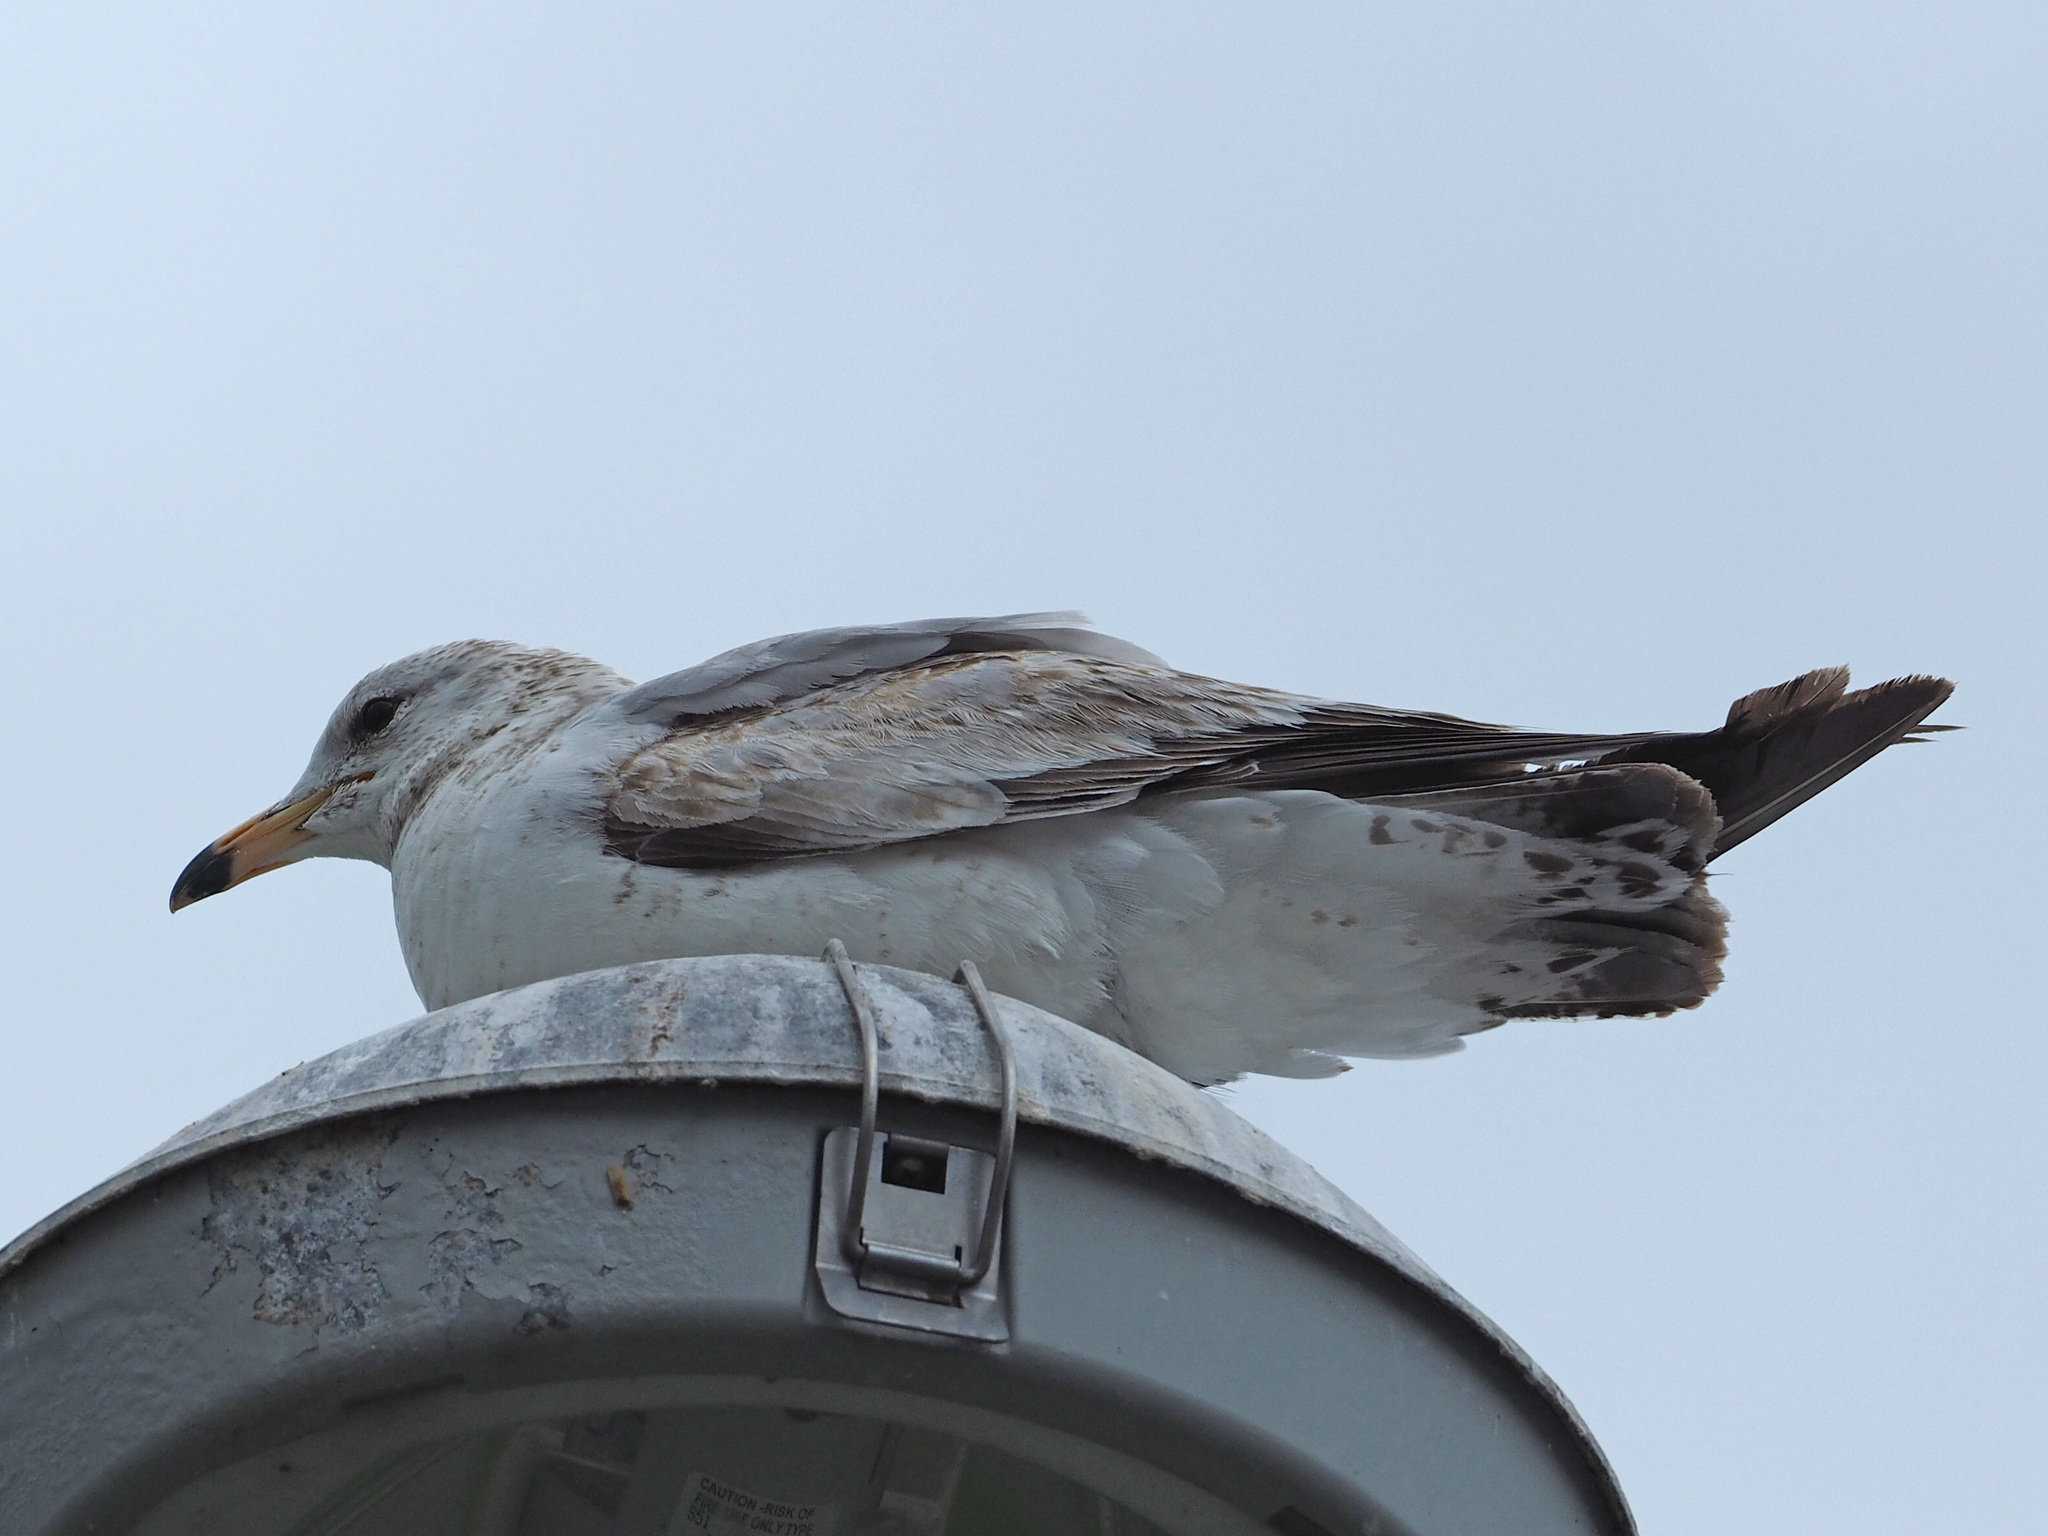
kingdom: Animalia
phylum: Chordata
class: Aves
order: Charadriiformes
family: Laridae
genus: Larus
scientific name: Larus delawarensis
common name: Ring-billed gull
